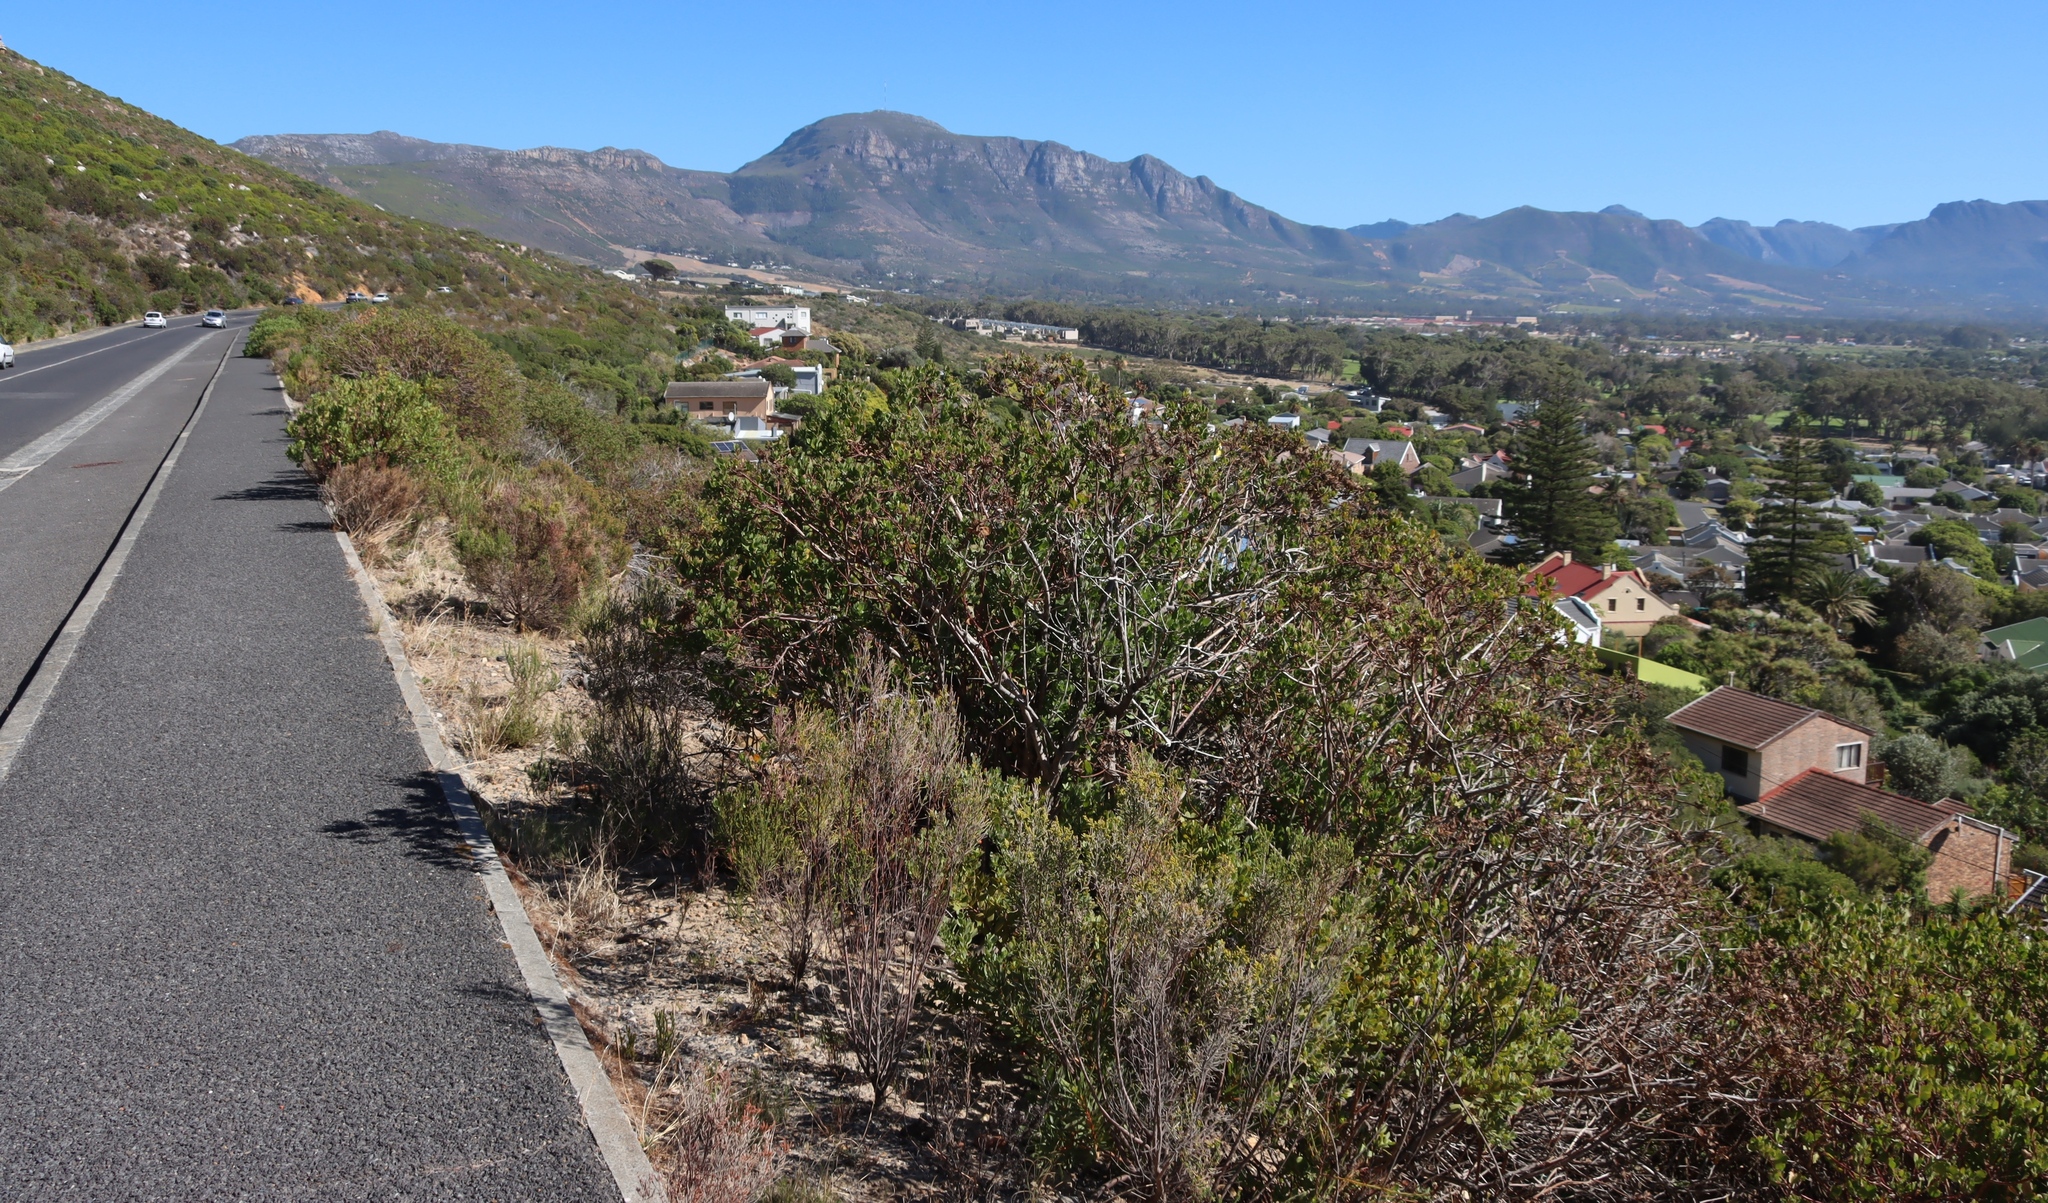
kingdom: Plantae
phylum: Tracheophyta
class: Magnoliopsida
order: Asterales
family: Asteraceae
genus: Osteospermum
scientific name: Osteospermum moniliferum
